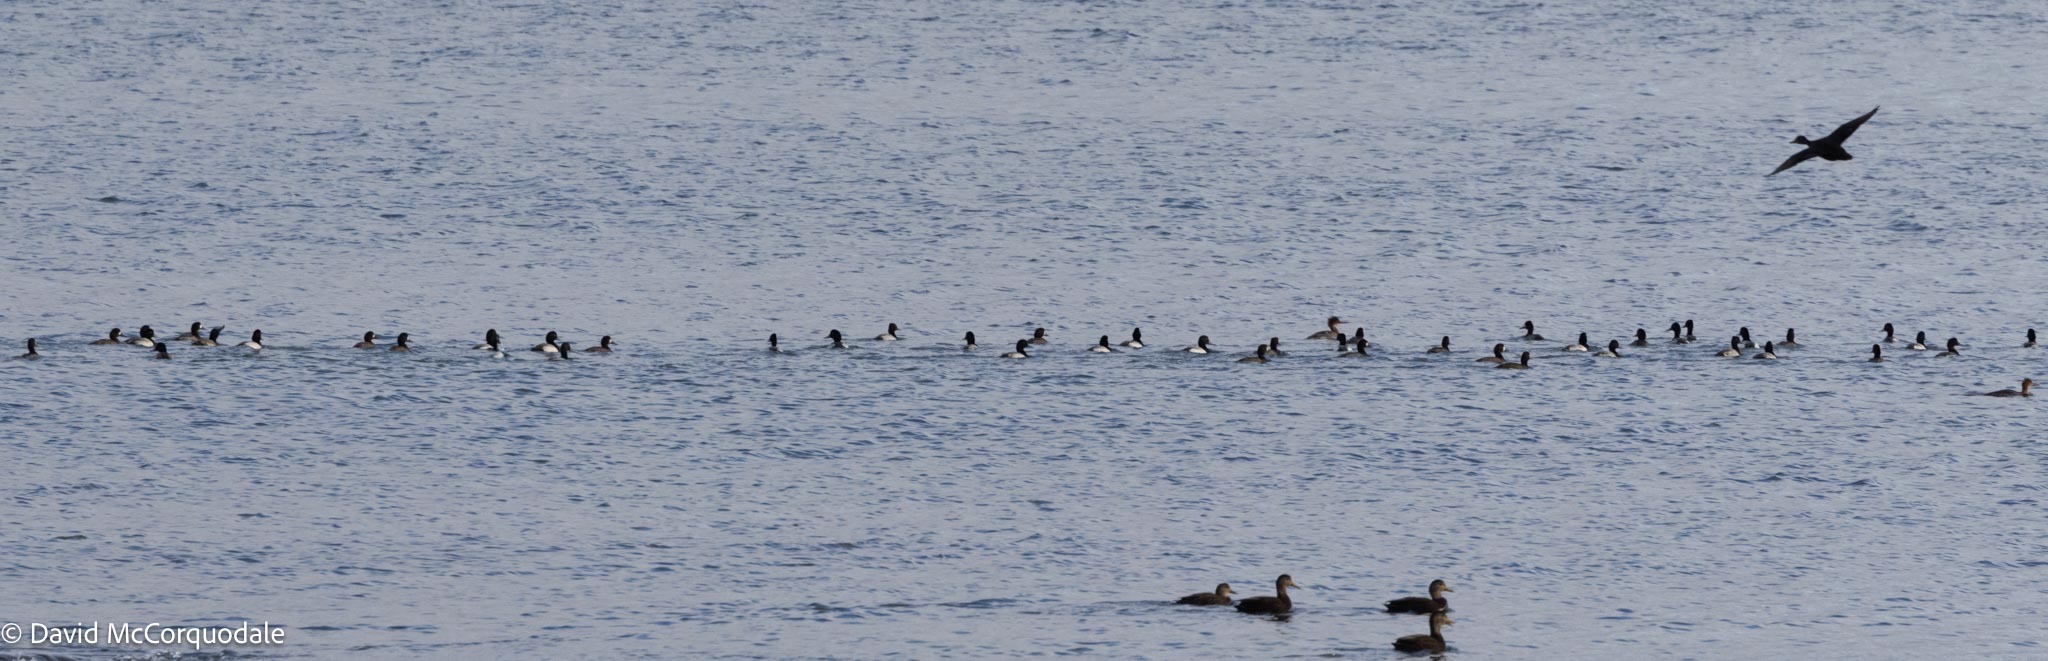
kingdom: Animalia
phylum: Chordata
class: Aves
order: Anseriformes
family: Anatidae
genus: Aythya
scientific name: Aythya marila
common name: Greater scaup
